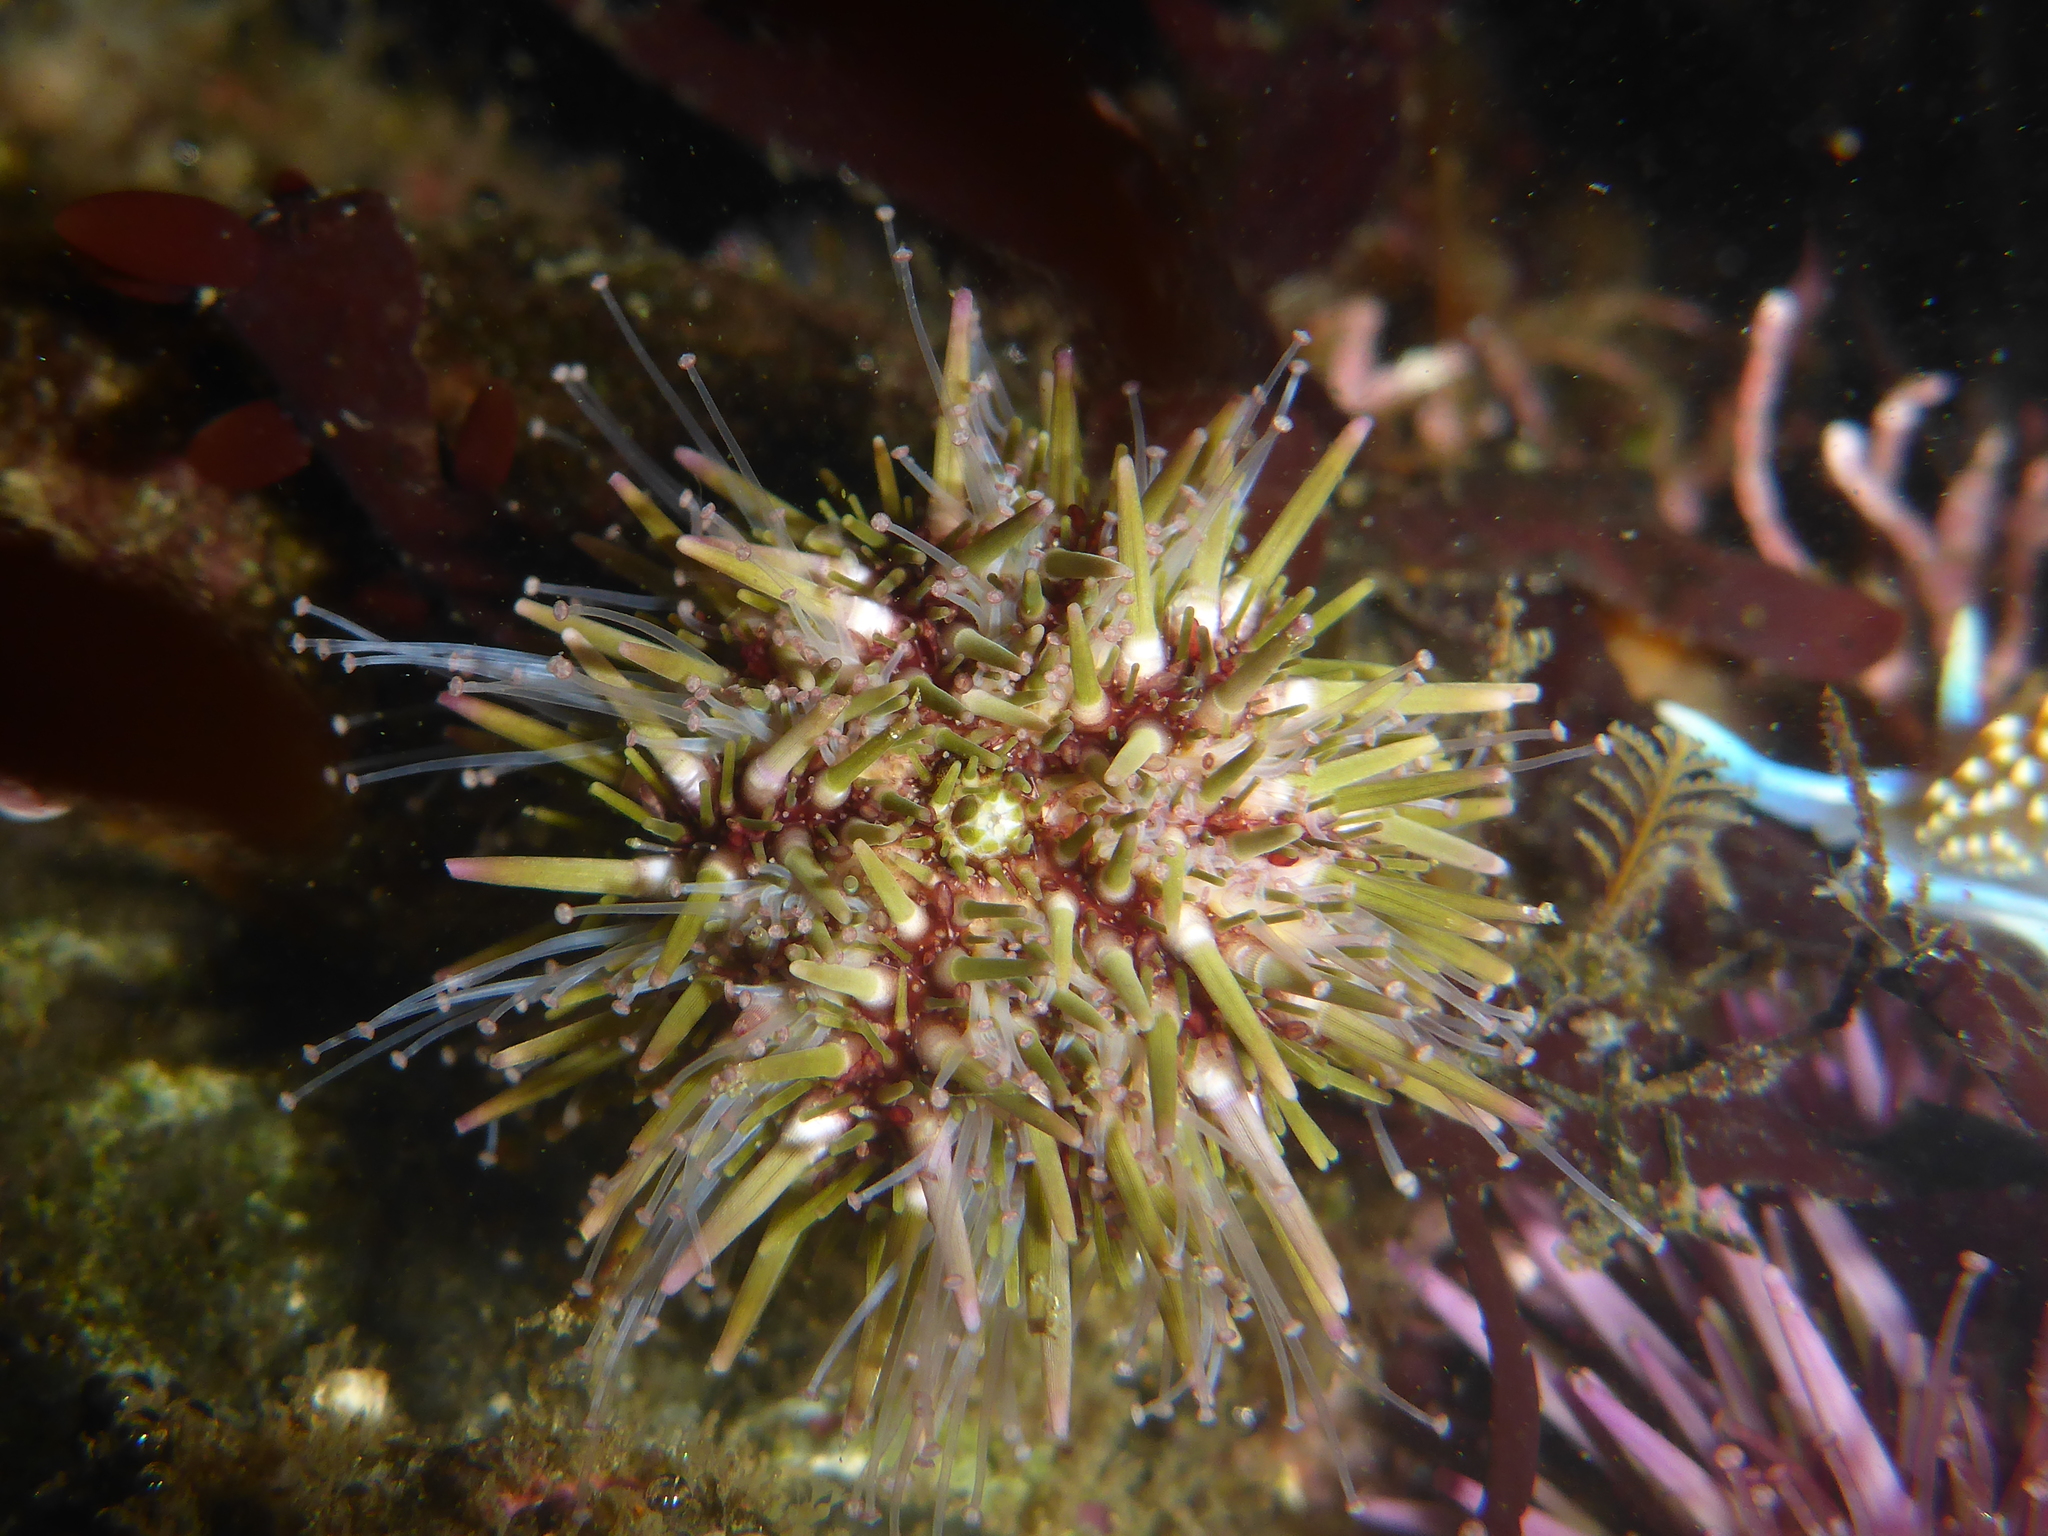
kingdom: Animalia
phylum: Echinodermata
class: Echinoidea
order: Camarodonta
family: Strongylocentrotidae
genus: Strongylocentrotus
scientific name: Strongylocentrotus purpuratus
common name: Purple sea urchin
